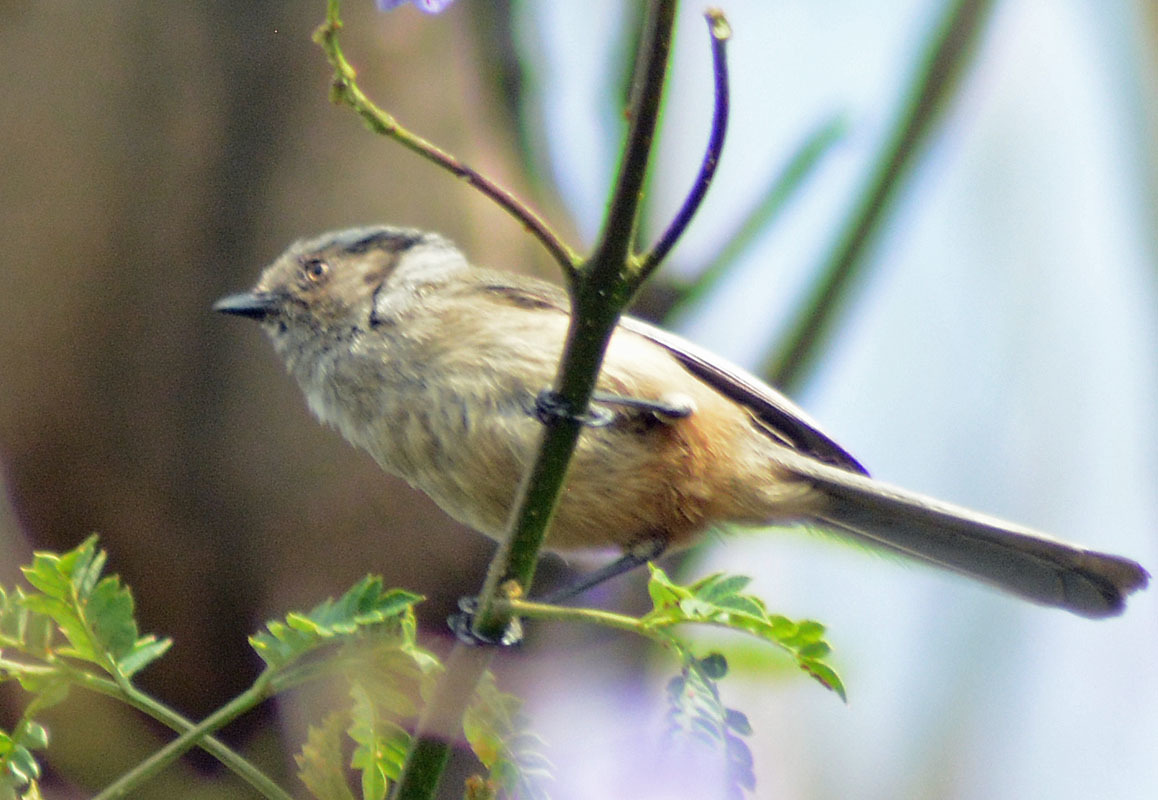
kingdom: Animalia
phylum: Chordata
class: Aves
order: Passeriformes
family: Aegithalidae
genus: Psaltriparus
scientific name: Psaltriparus minimus
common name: American bushtit
